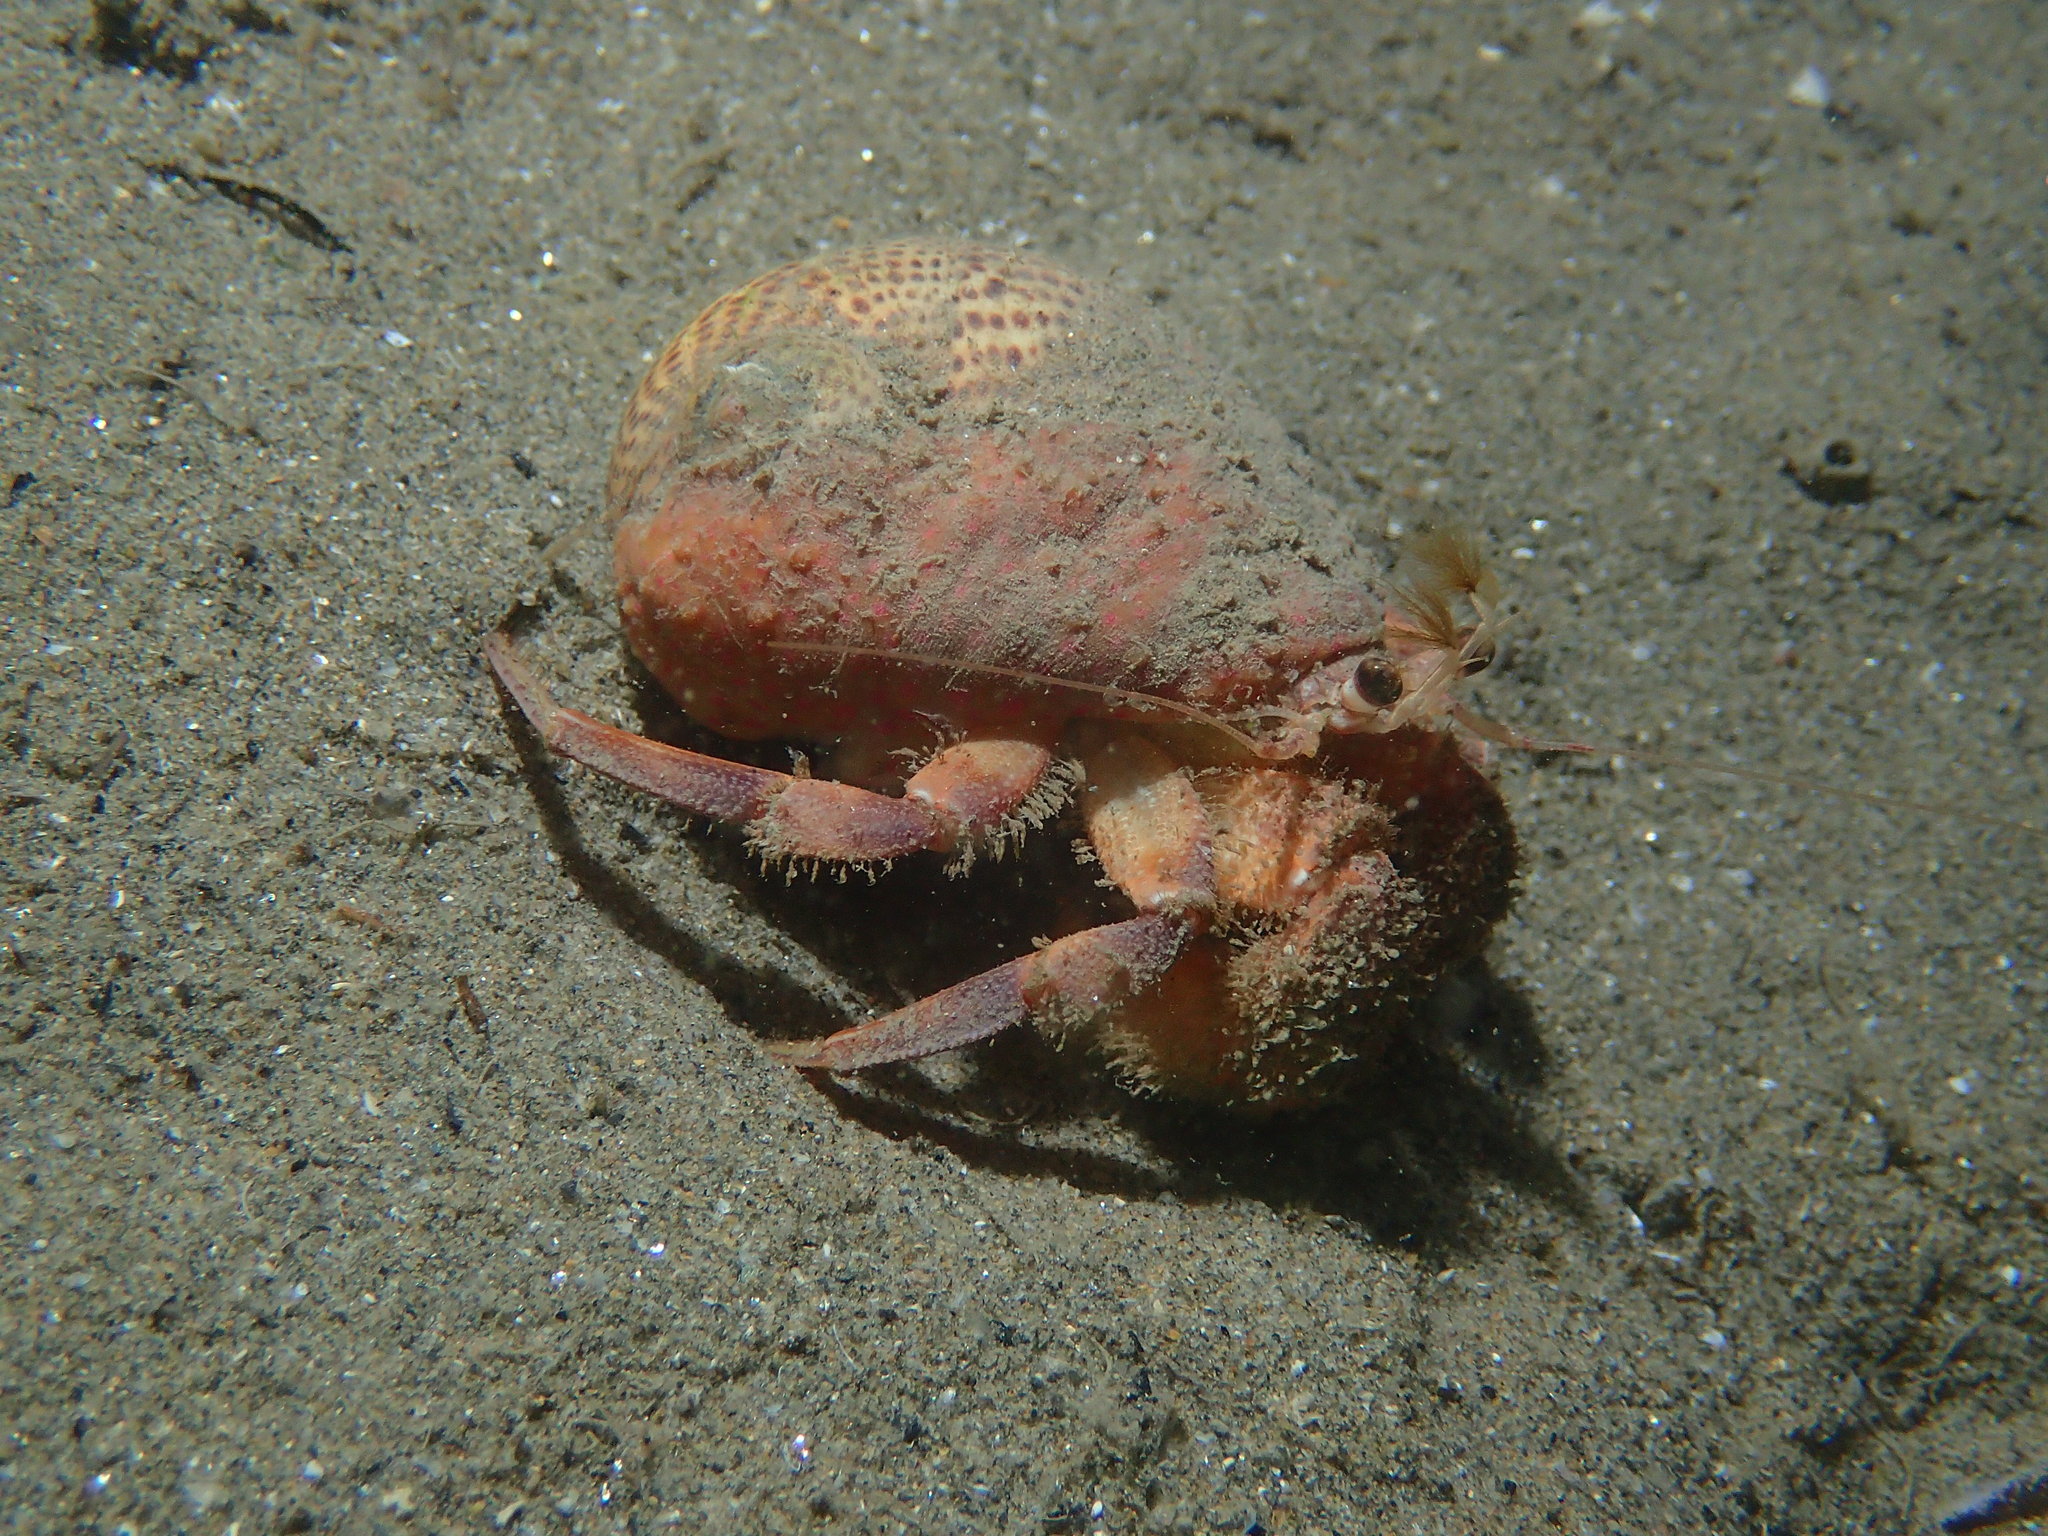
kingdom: Animalia
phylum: Arthropoda
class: Malacostraca
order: Decapoda
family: Paguridae
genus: Pagurus
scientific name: Pagurus prideaux
